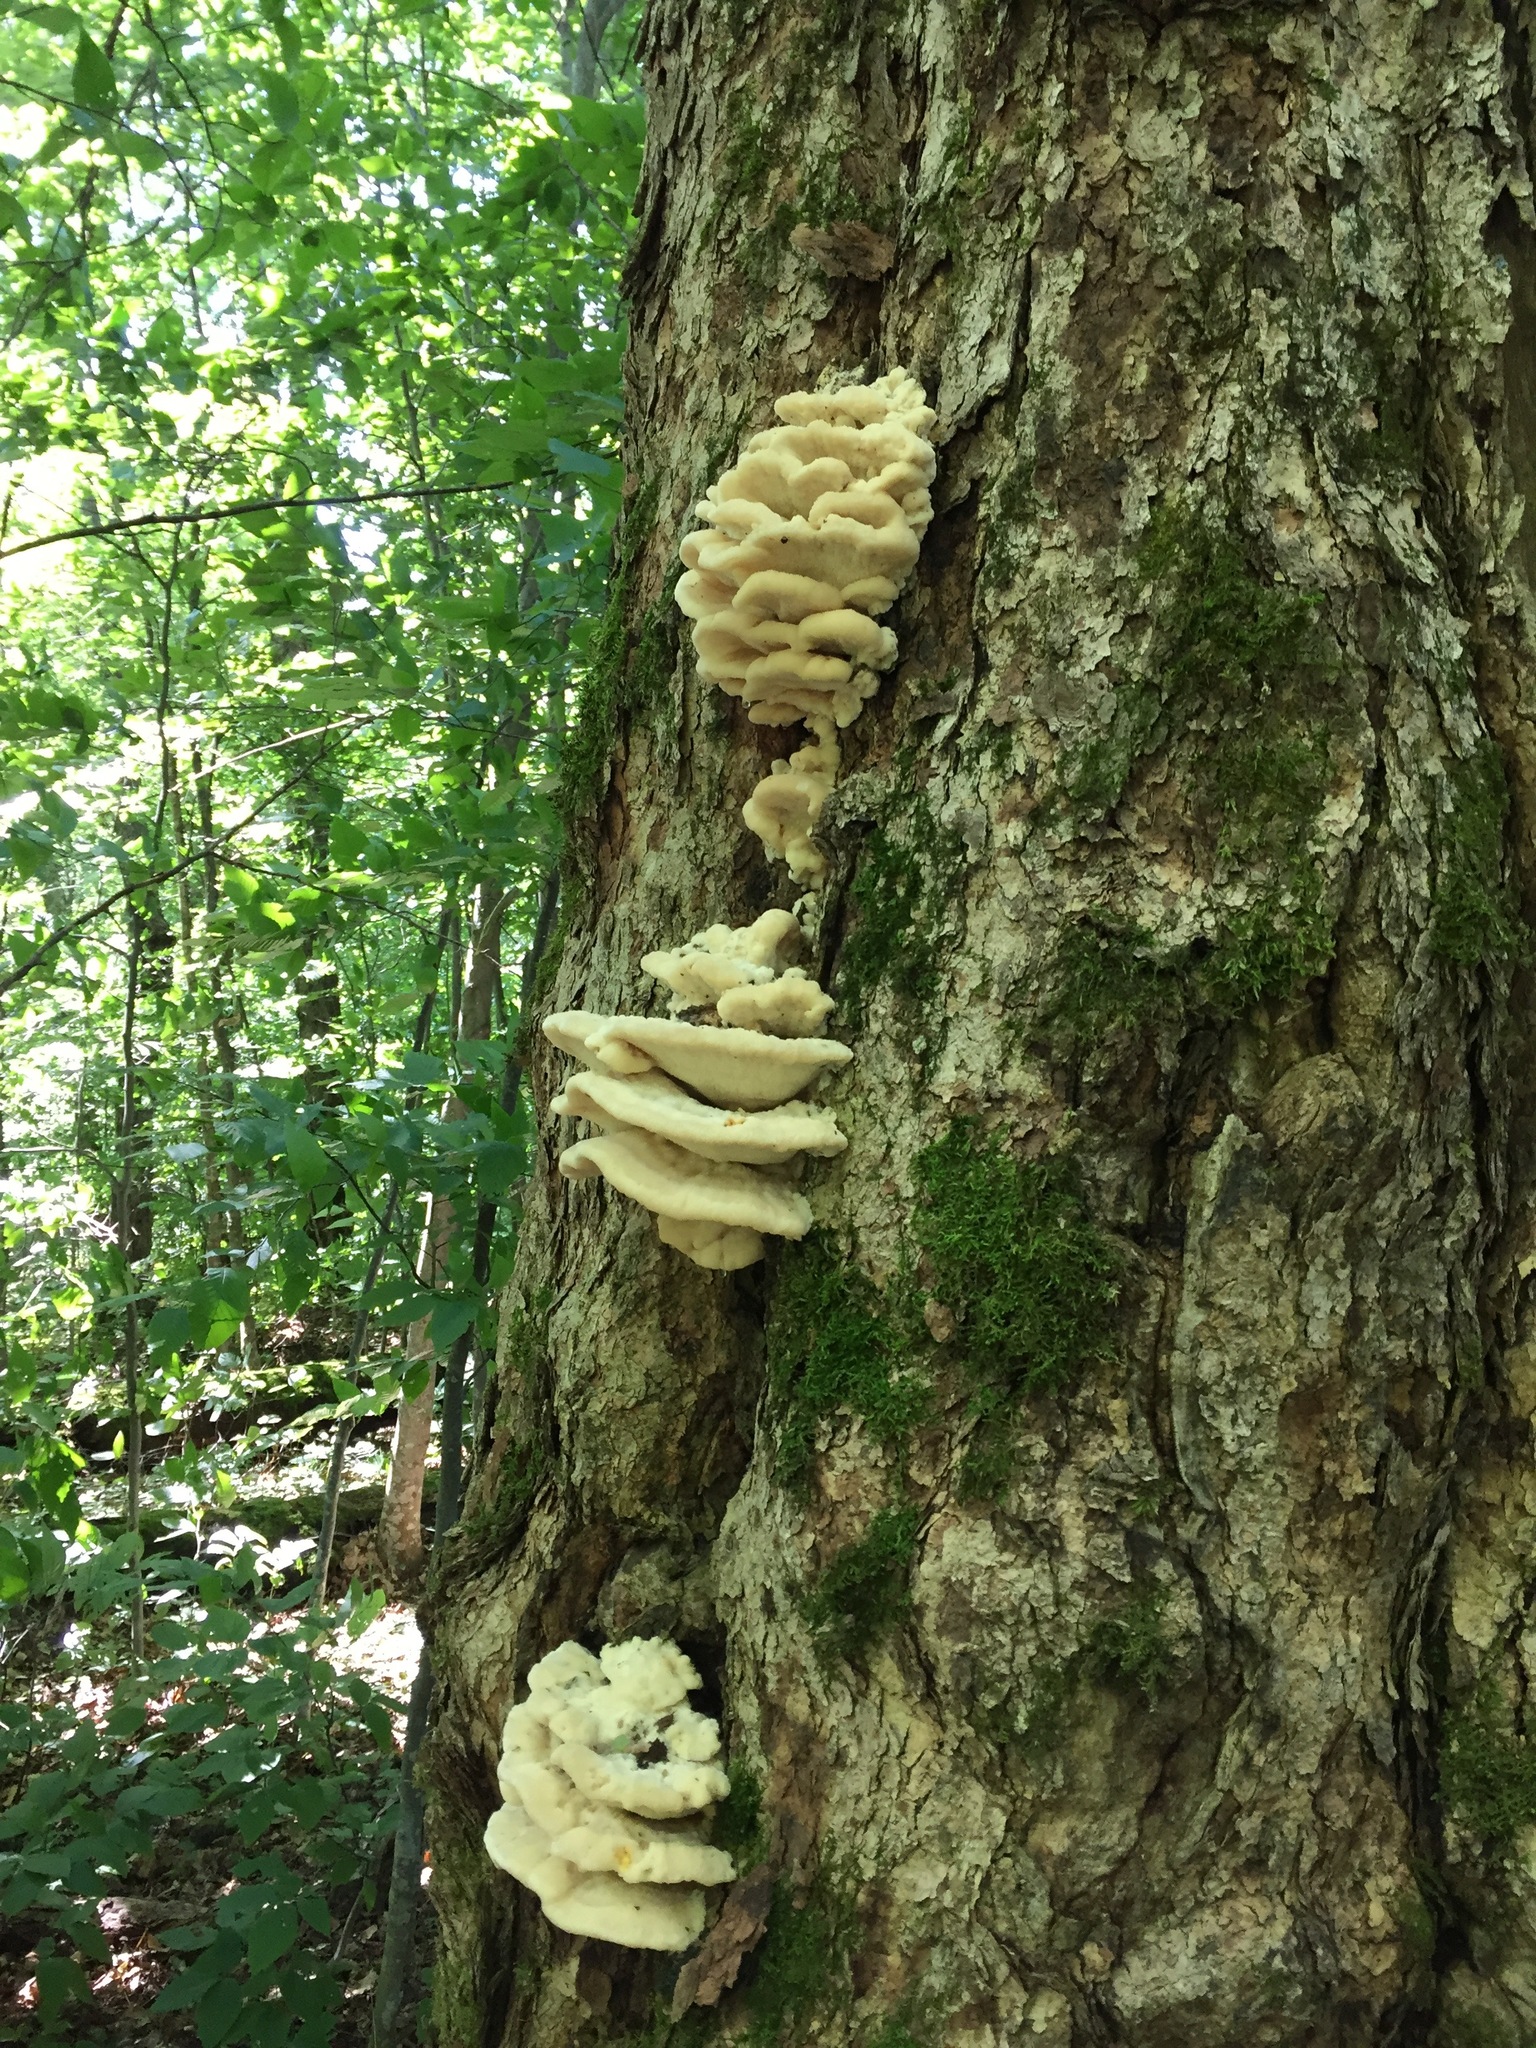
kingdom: Fungi
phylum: Basidiomycota
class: Agaricomycetes
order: Polyporales
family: Meruliaceae
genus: Climacodon
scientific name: Climacodon septentrionalis
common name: Northern tooth
